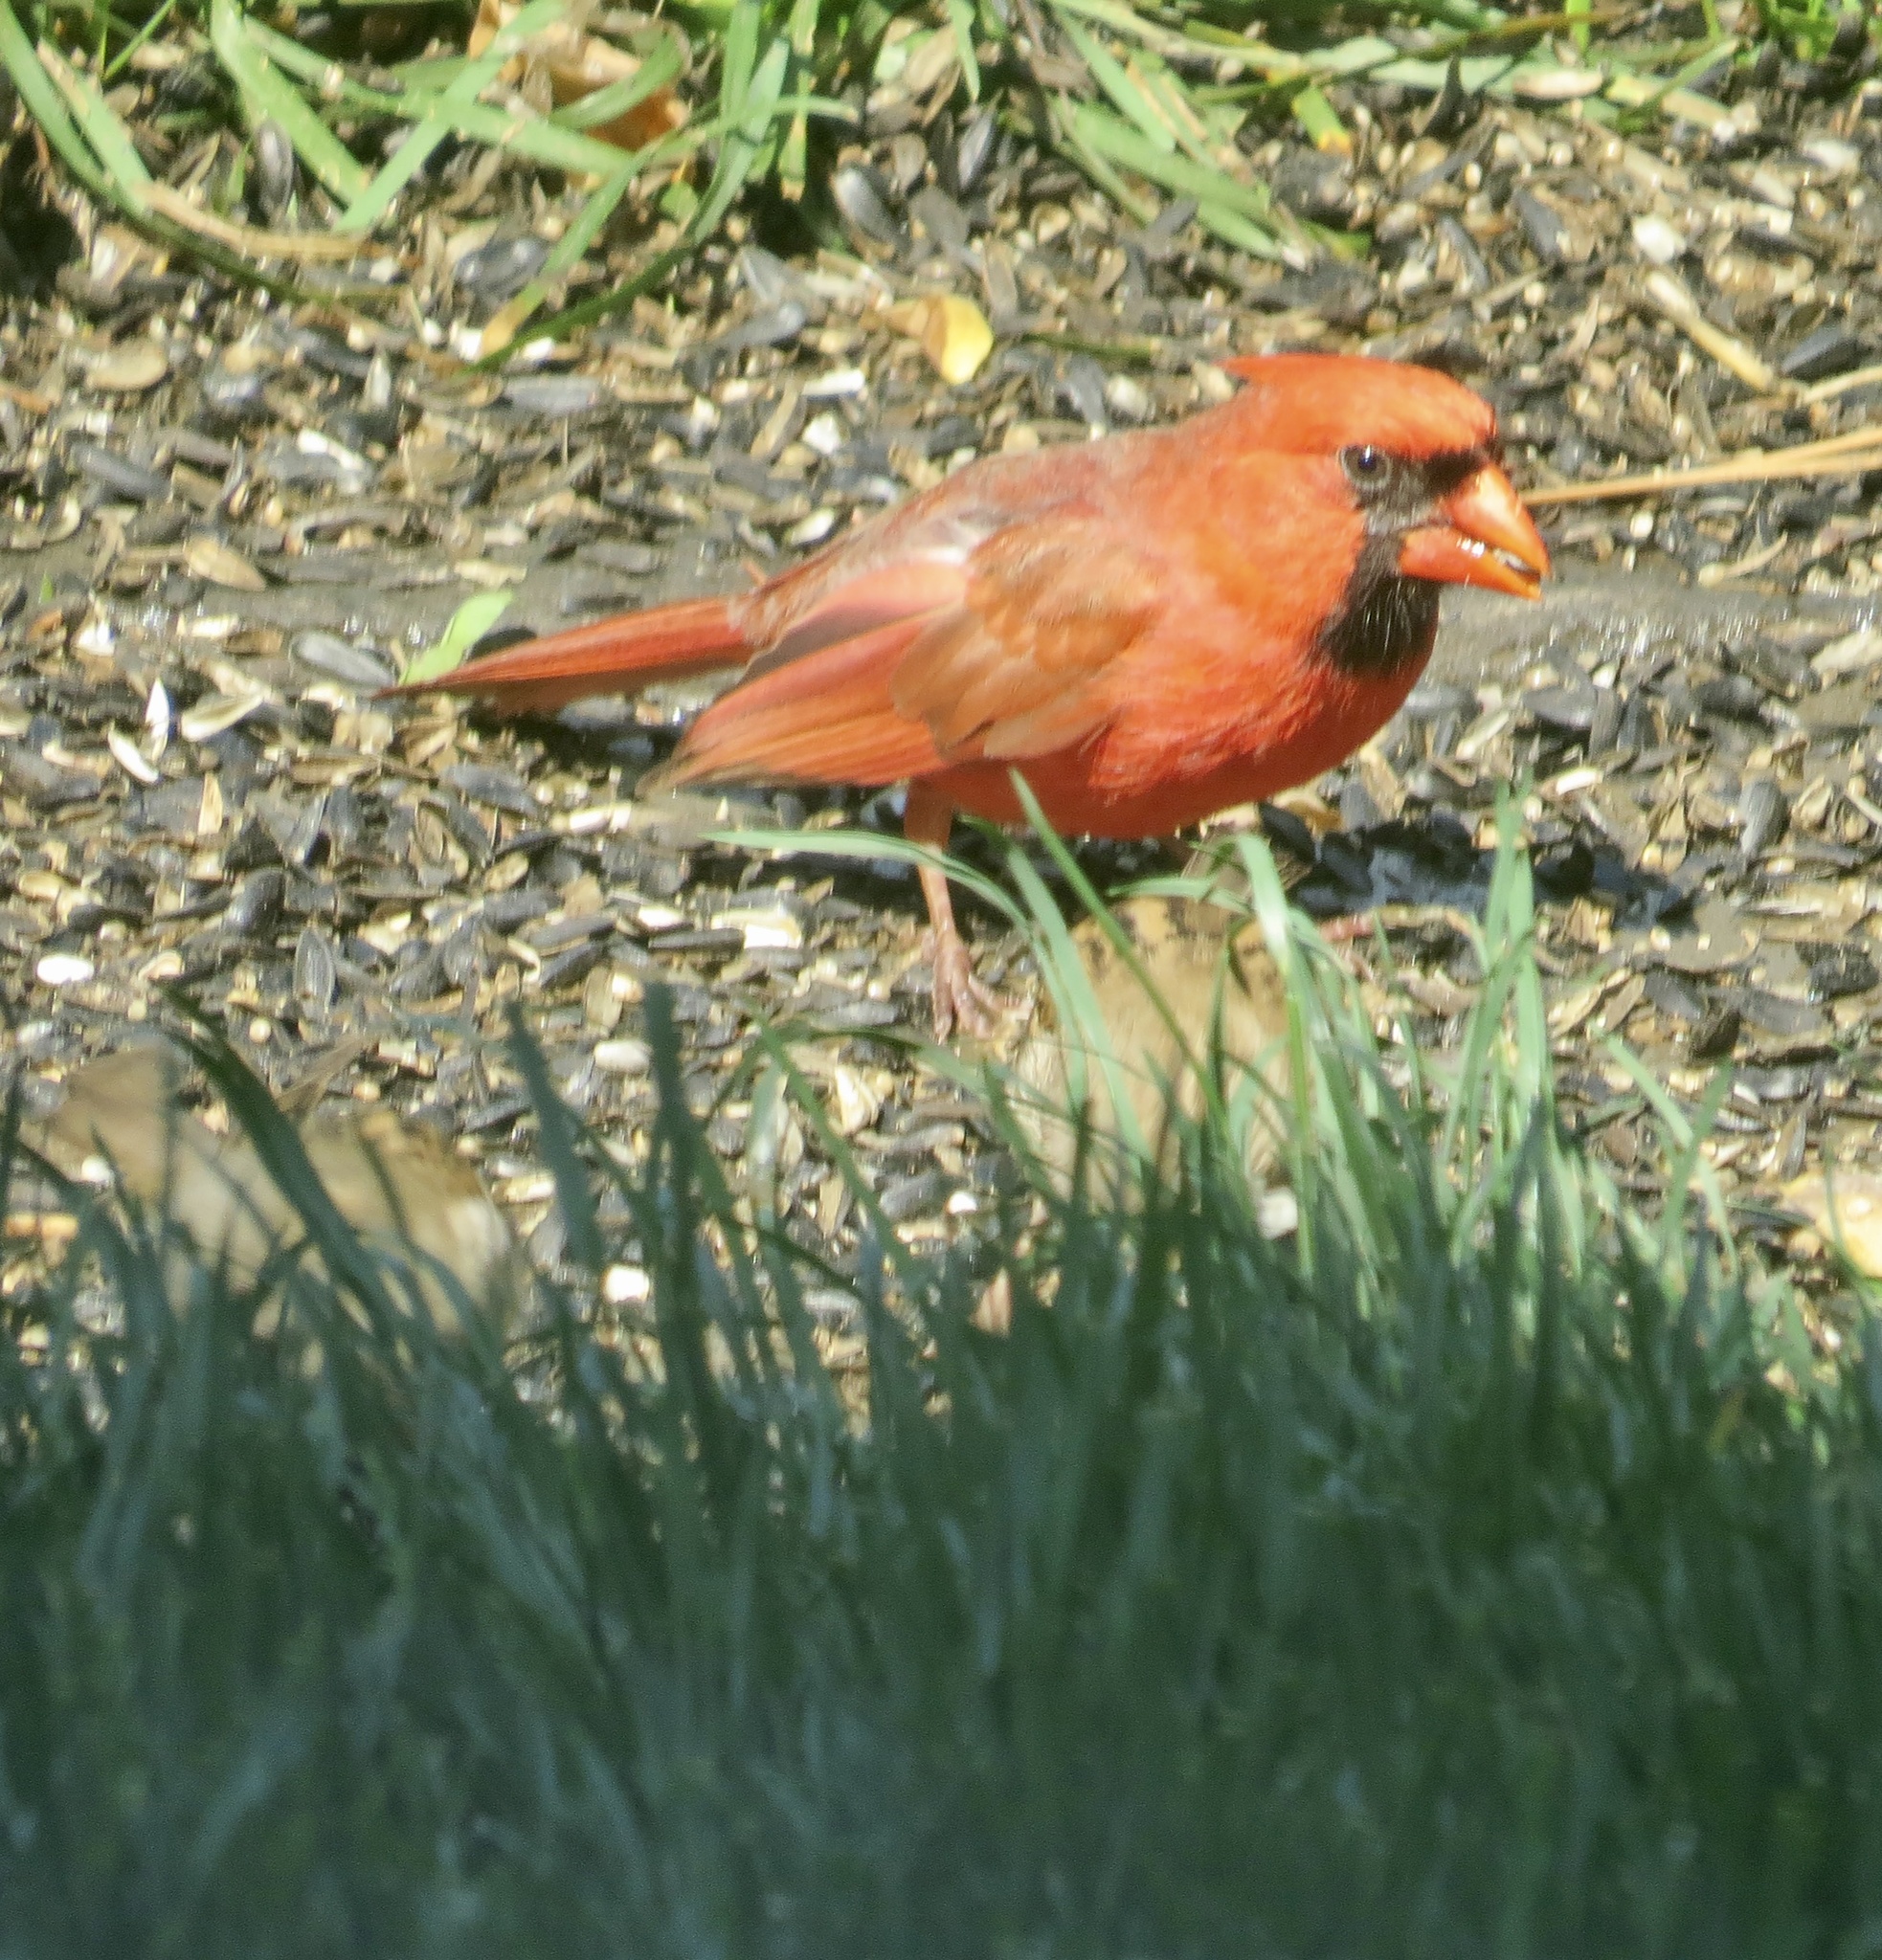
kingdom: Animalia
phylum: Chordata
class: Aves
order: Passeriformes
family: Cardinalidae
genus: Cardinalis
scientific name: Cardinalis cardinalis
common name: Northern cardinal
